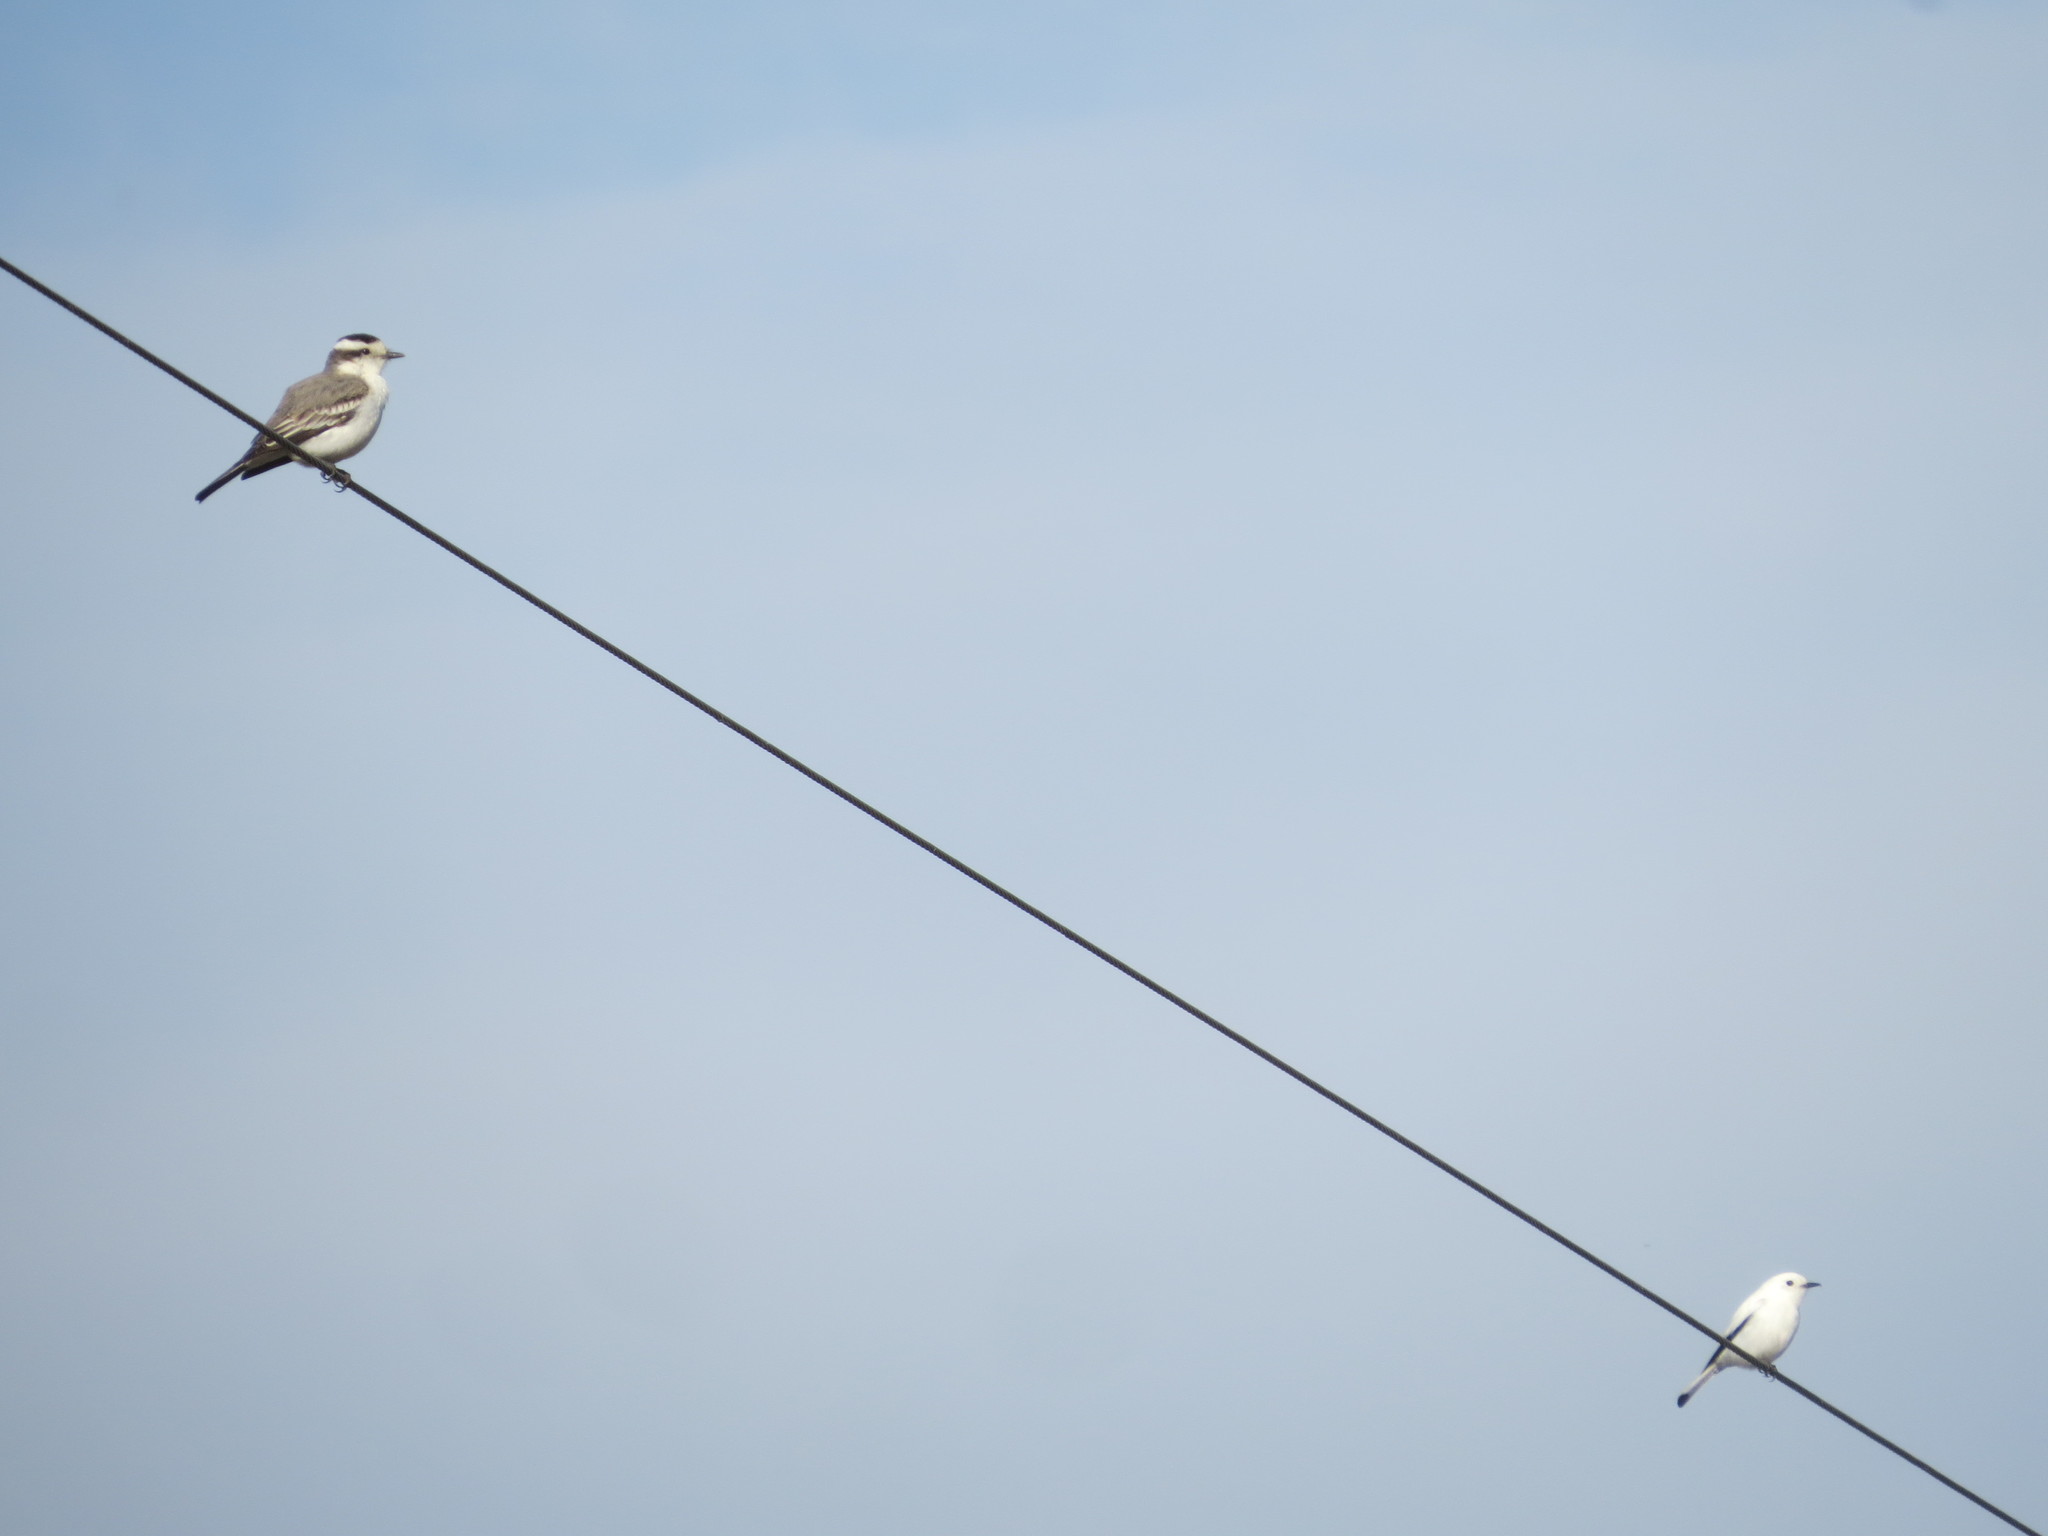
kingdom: Animalia
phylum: Chordata
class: Aves
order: Passeriformes
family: Tyrannidae
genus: Xolmis
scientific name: Xolmis coronatus
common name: Black-crowned monjita
